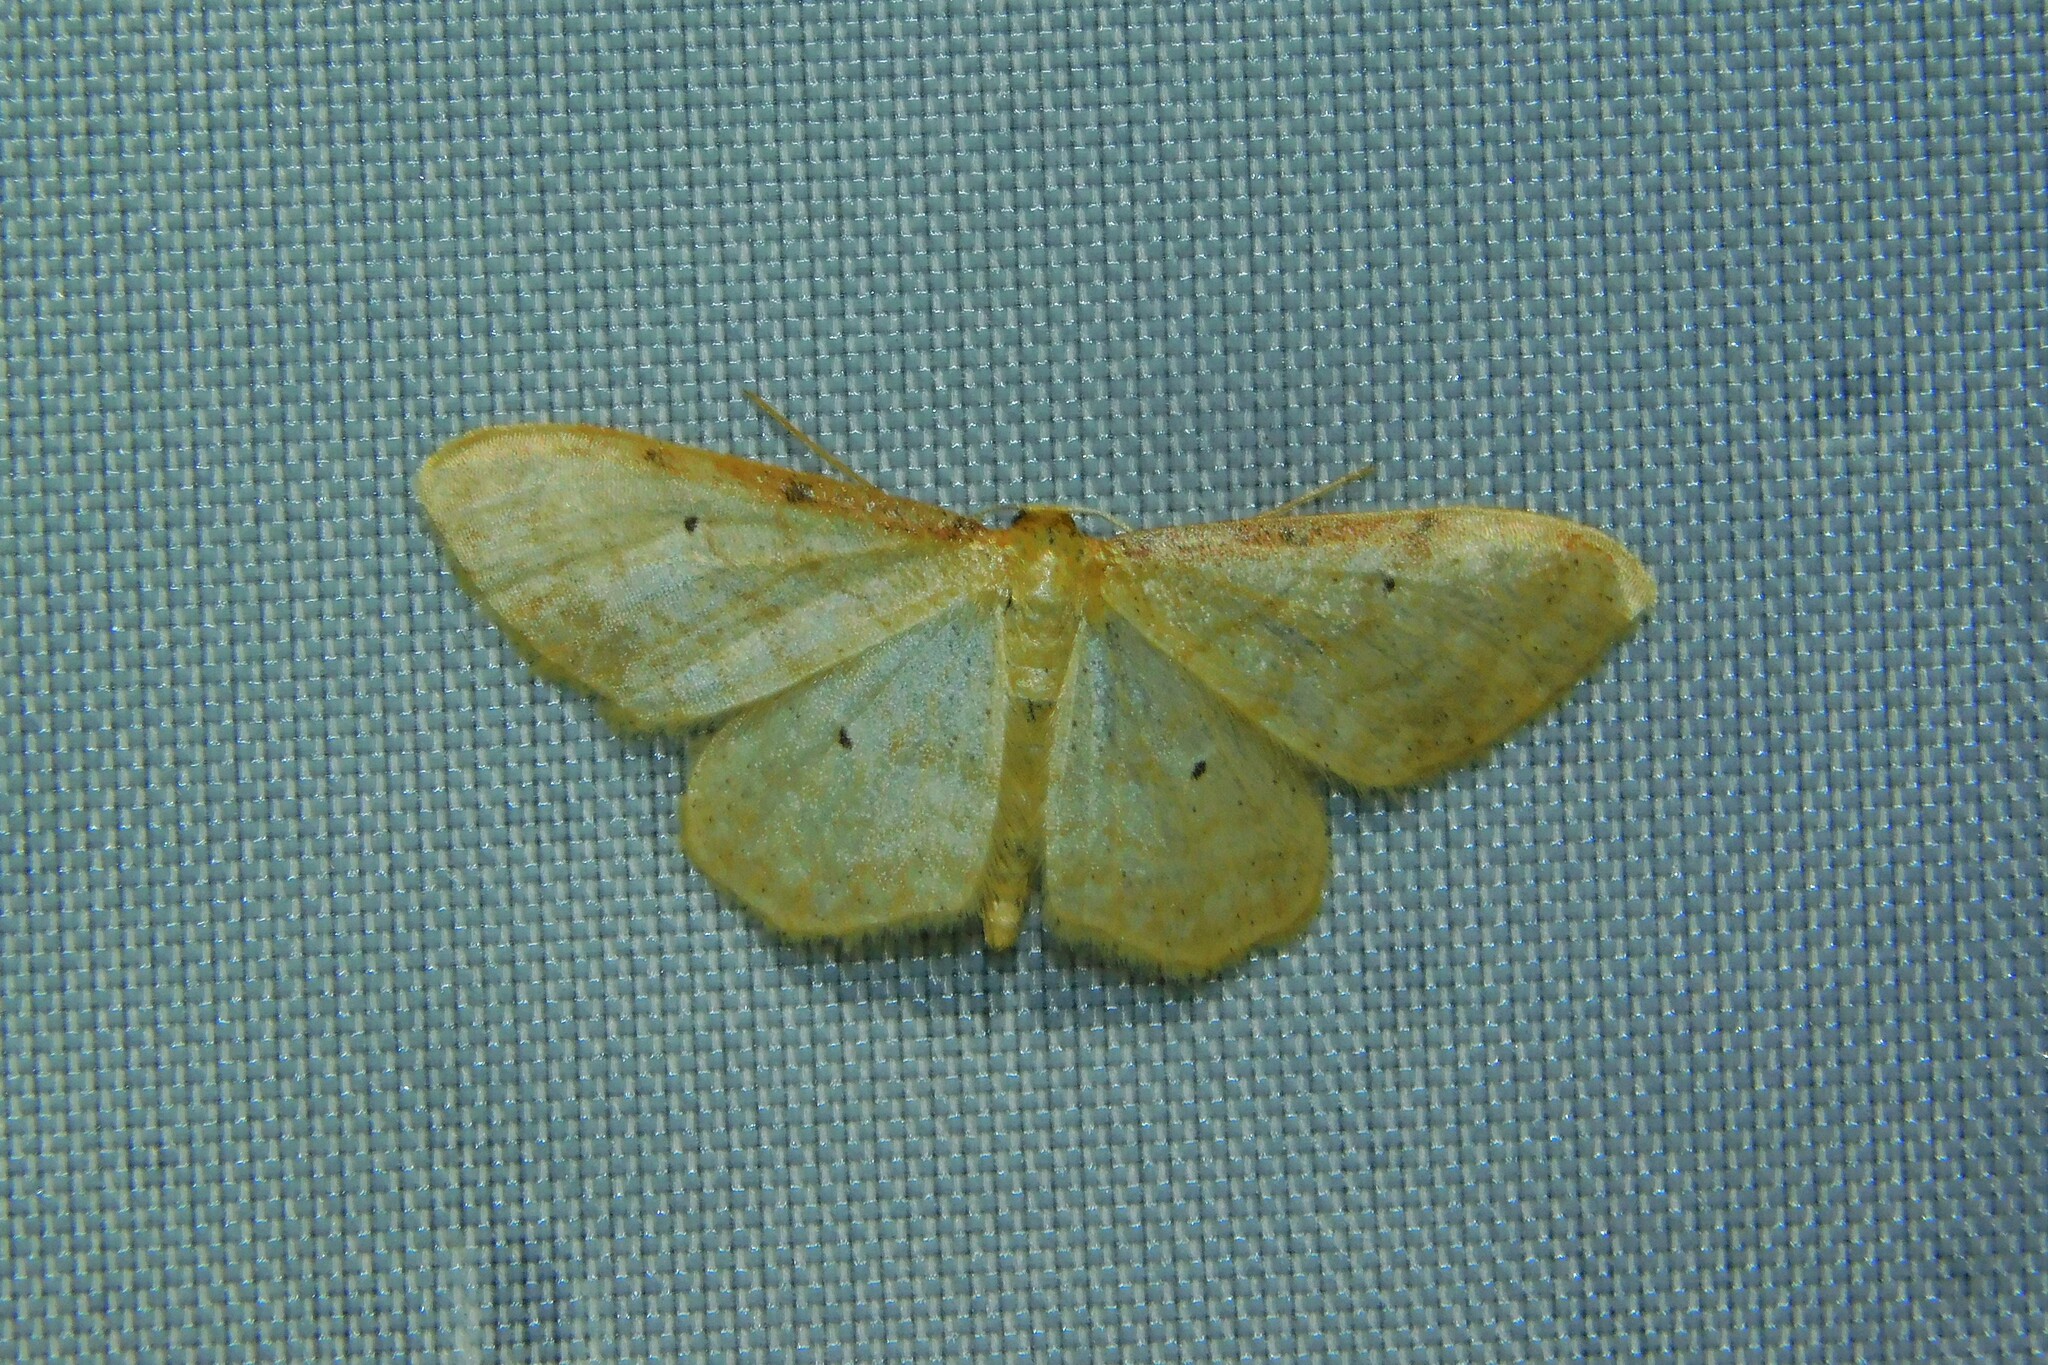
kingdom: Animalia
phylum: Arthropoda
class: Insecta
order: Lepidoptera
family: Geometridae
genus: Idaea
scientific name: Idaea humiliata
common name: Isle of wight wave
